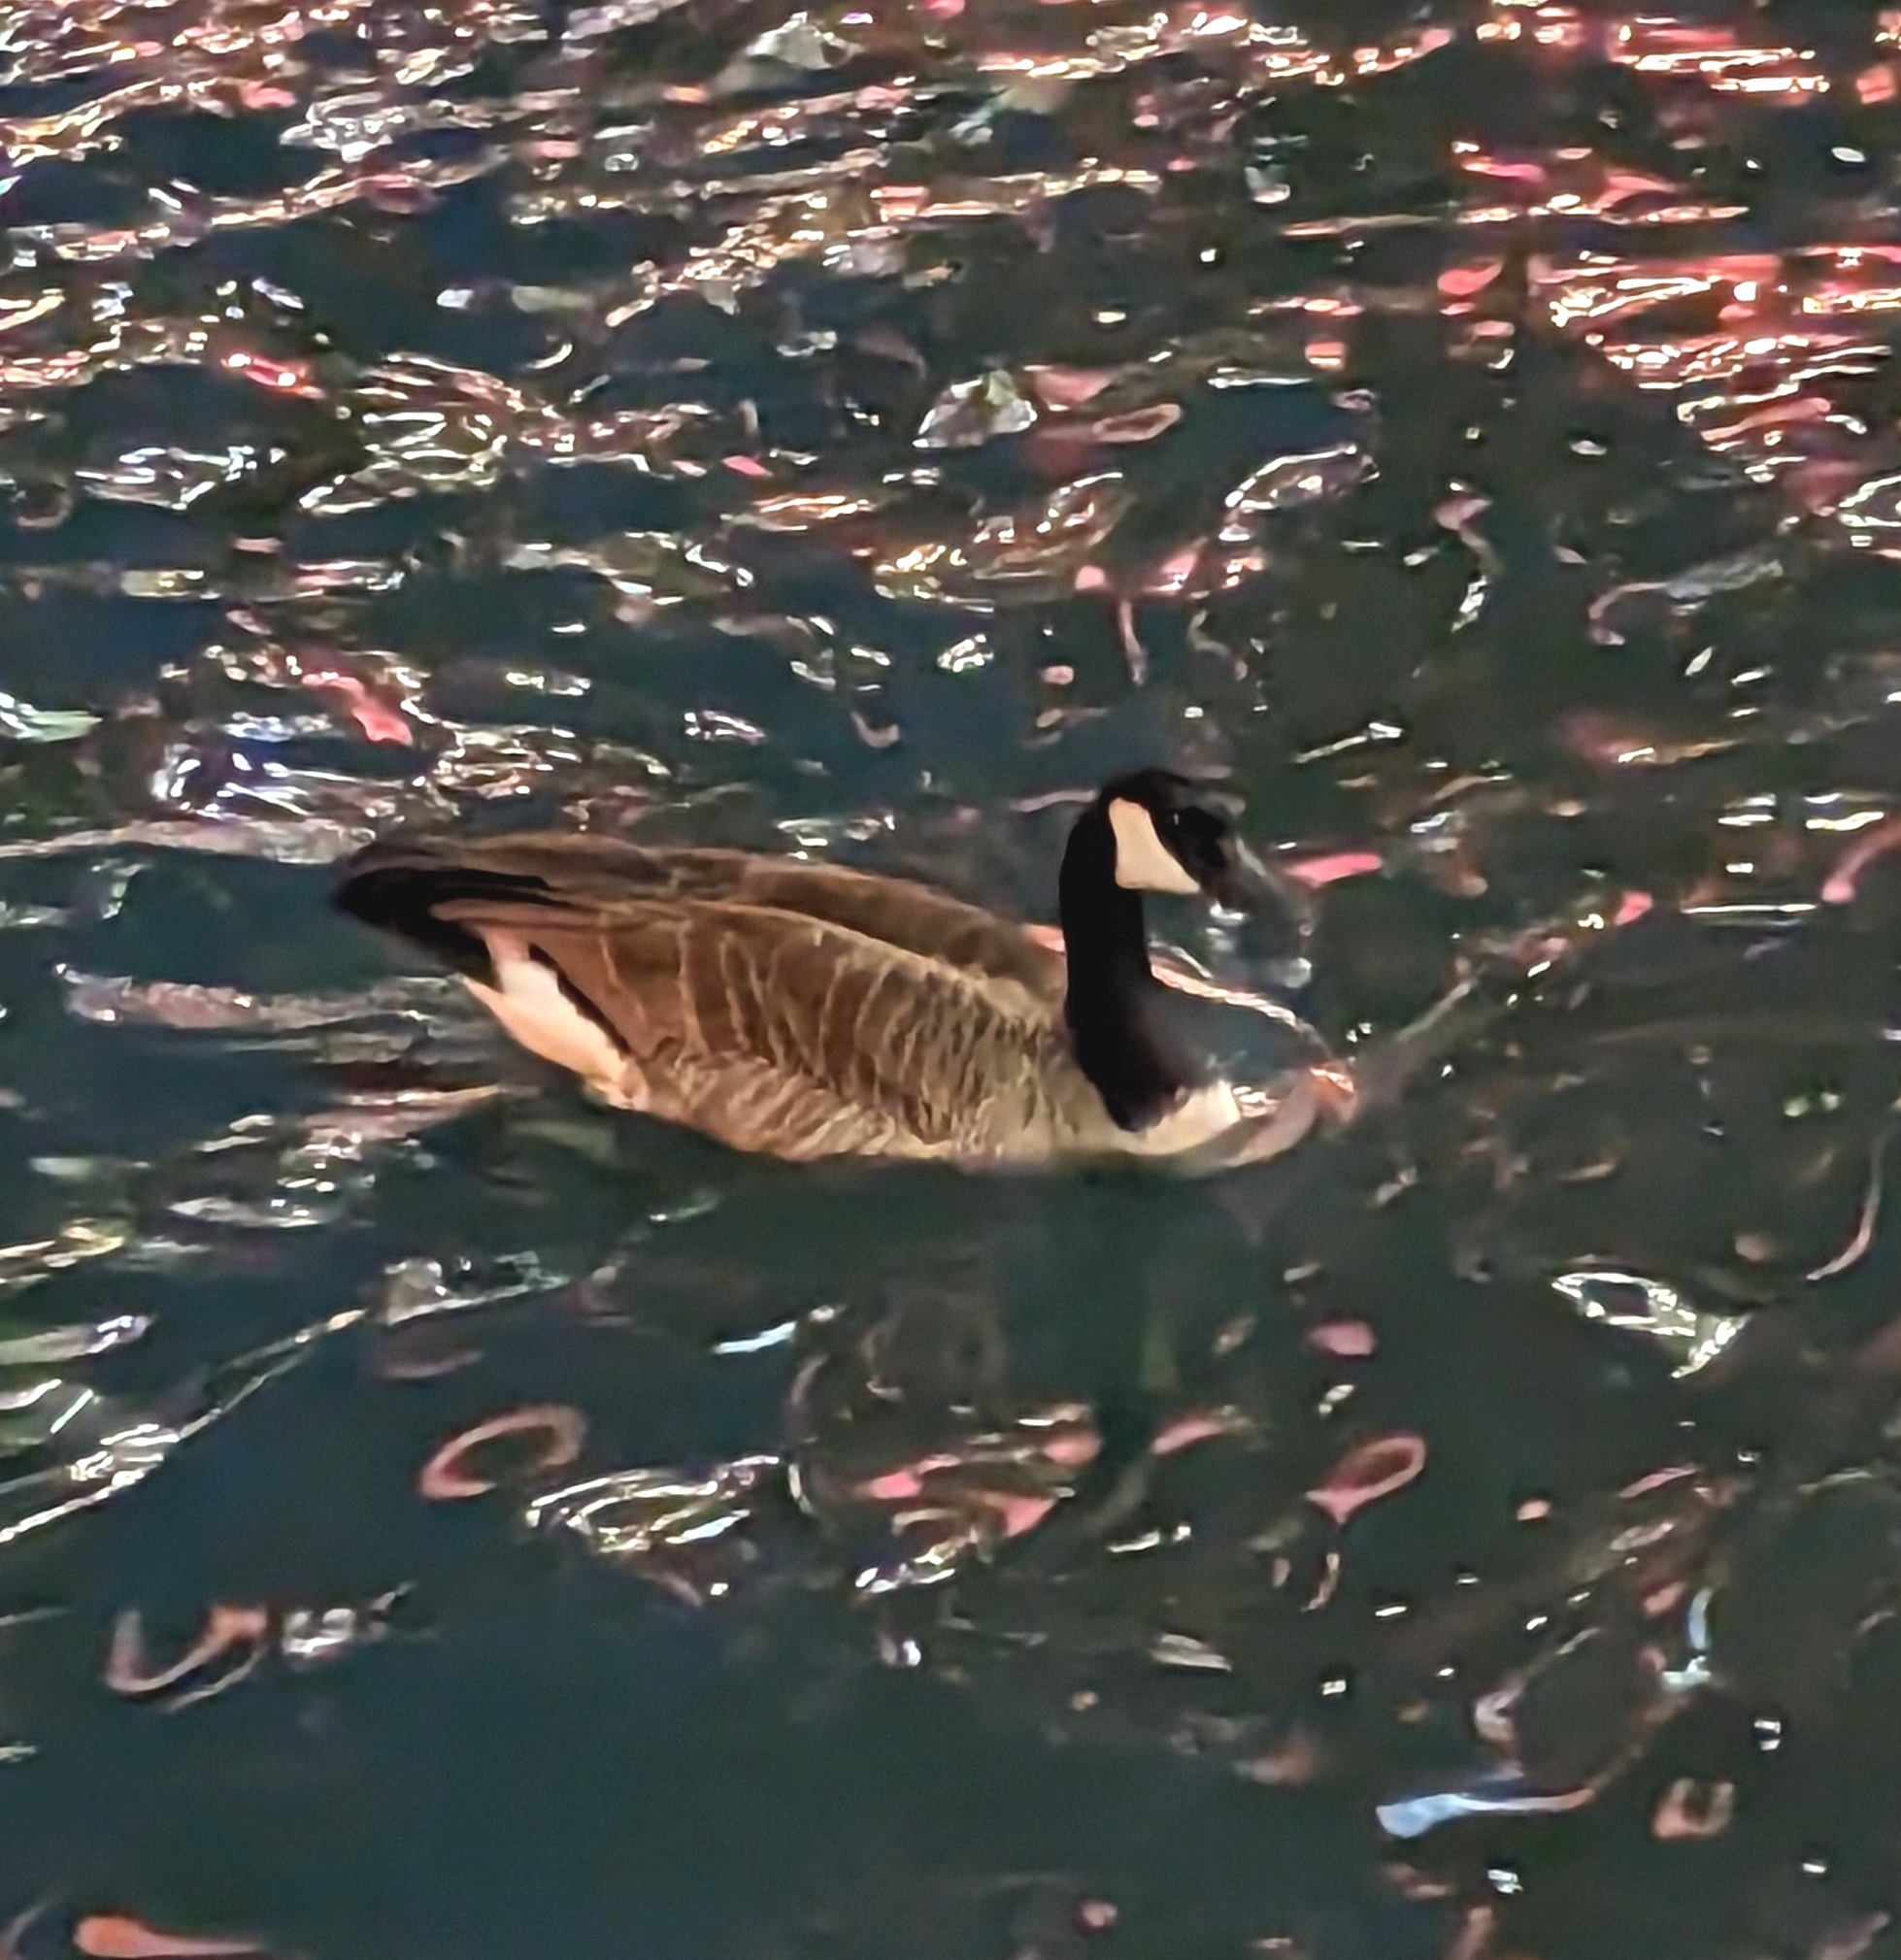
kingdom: Animalia
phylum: Chordata
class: Aves
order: Anseriformes
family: Anatidae
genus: Branta
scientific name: Branta canadensis
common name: Canada goose
